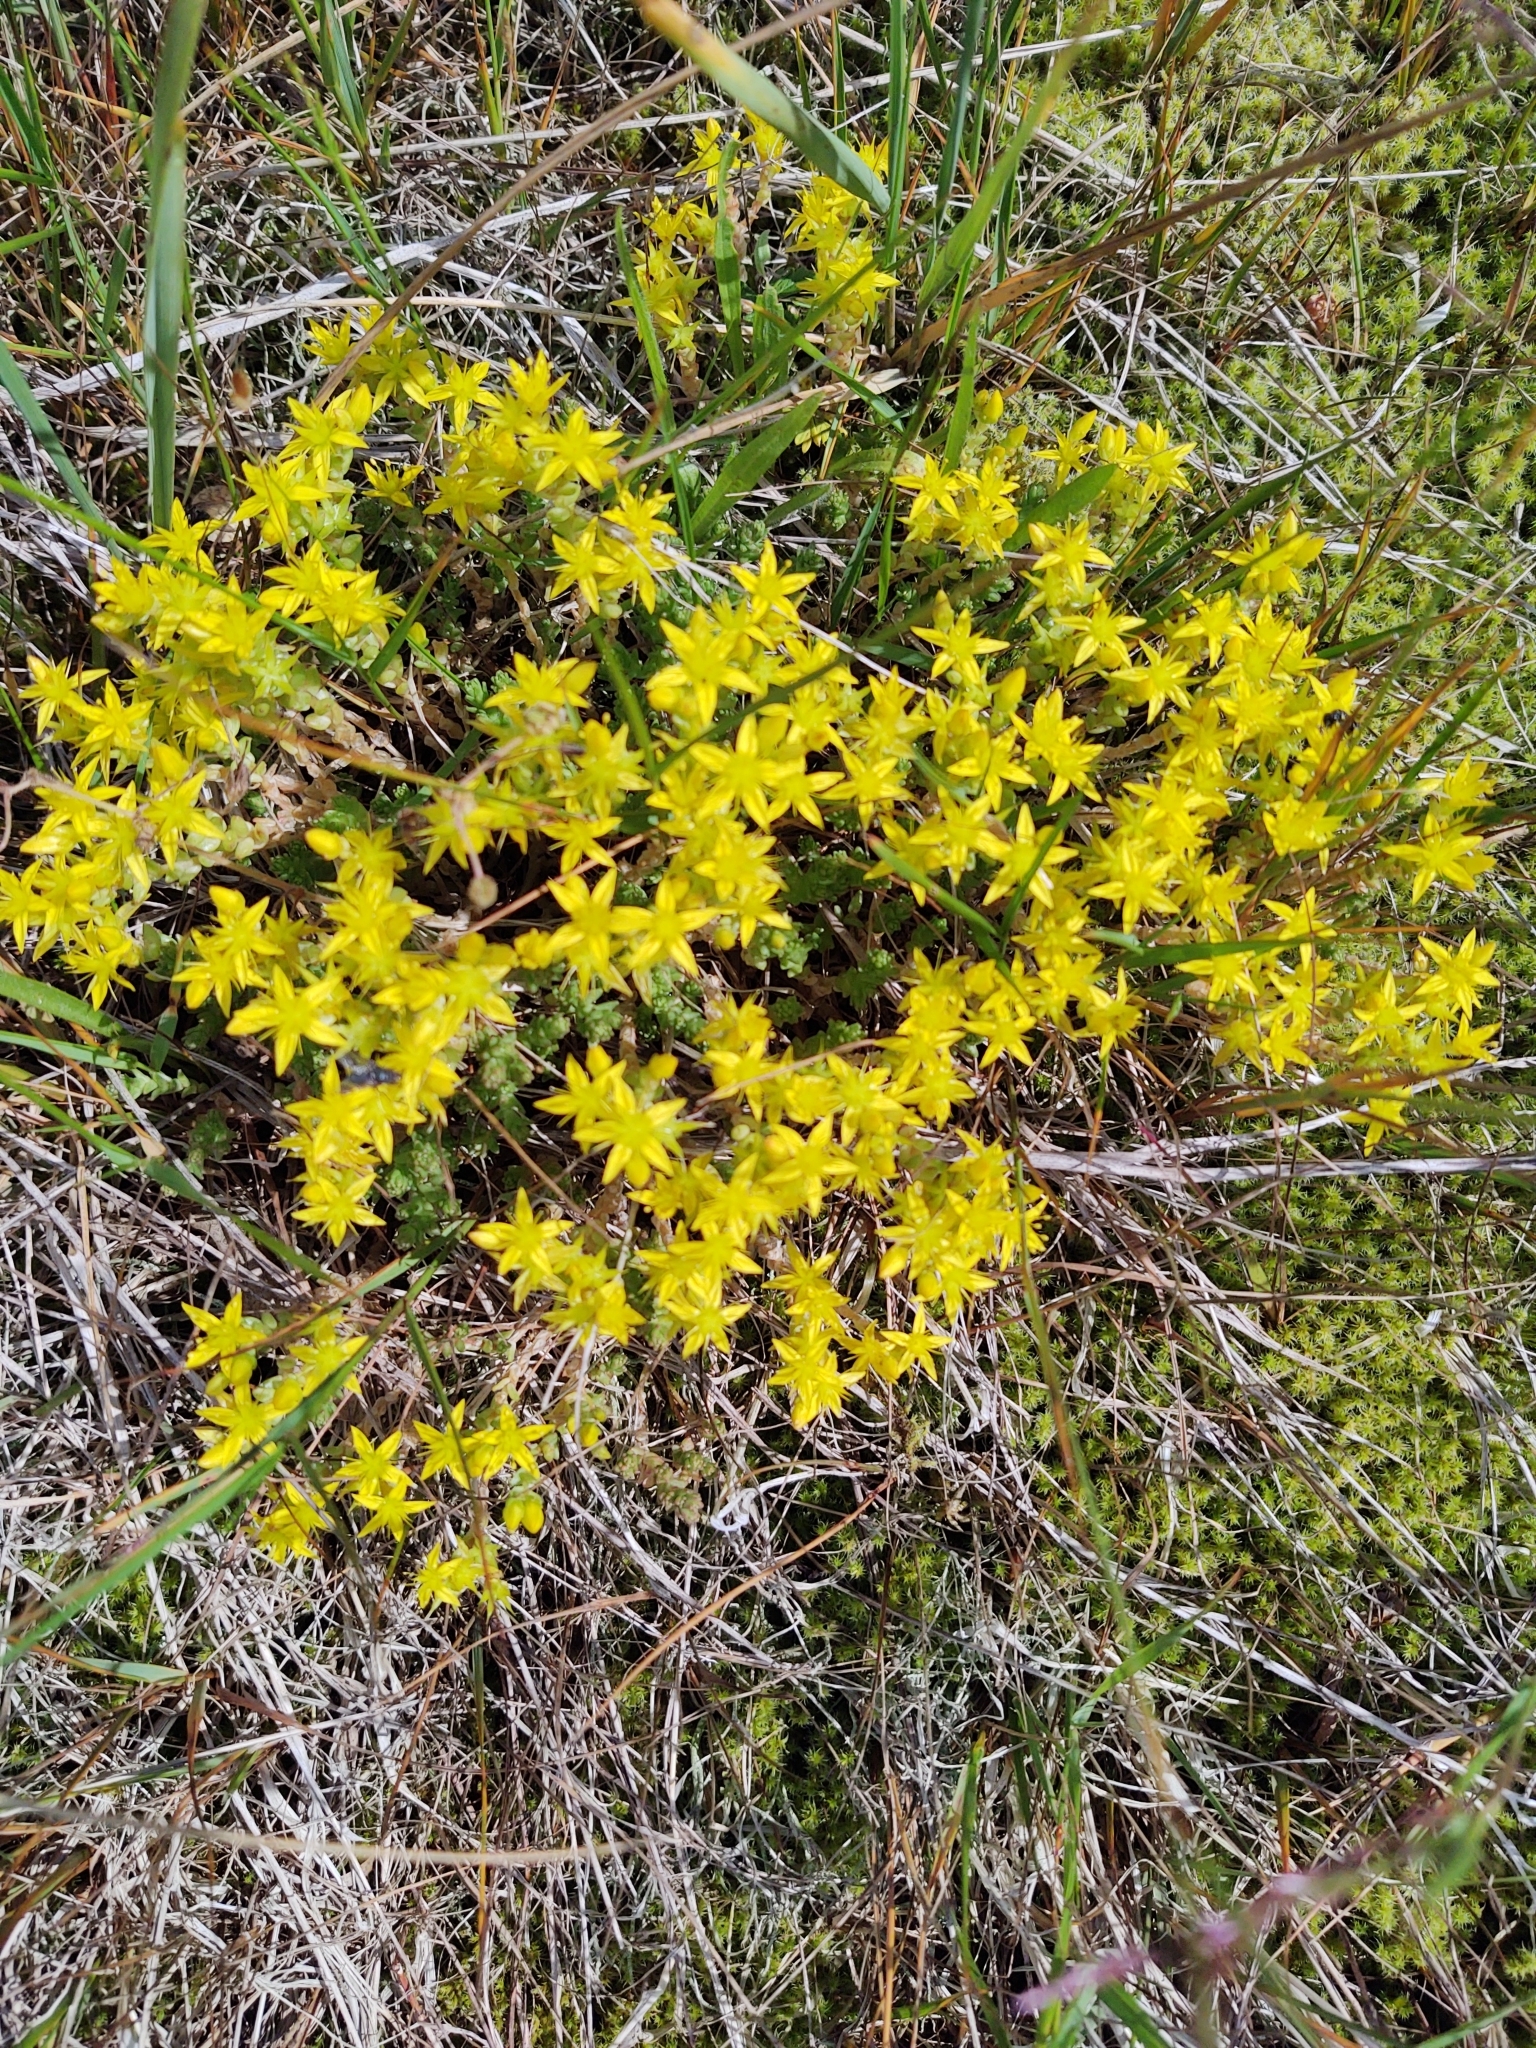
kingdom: Plantae
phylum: Tracheophyta
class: Magnoliopsida
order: Saxifragales
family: Crassulaceae
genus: Sedum
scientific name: Sedum acre
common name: Biting stonecrop
